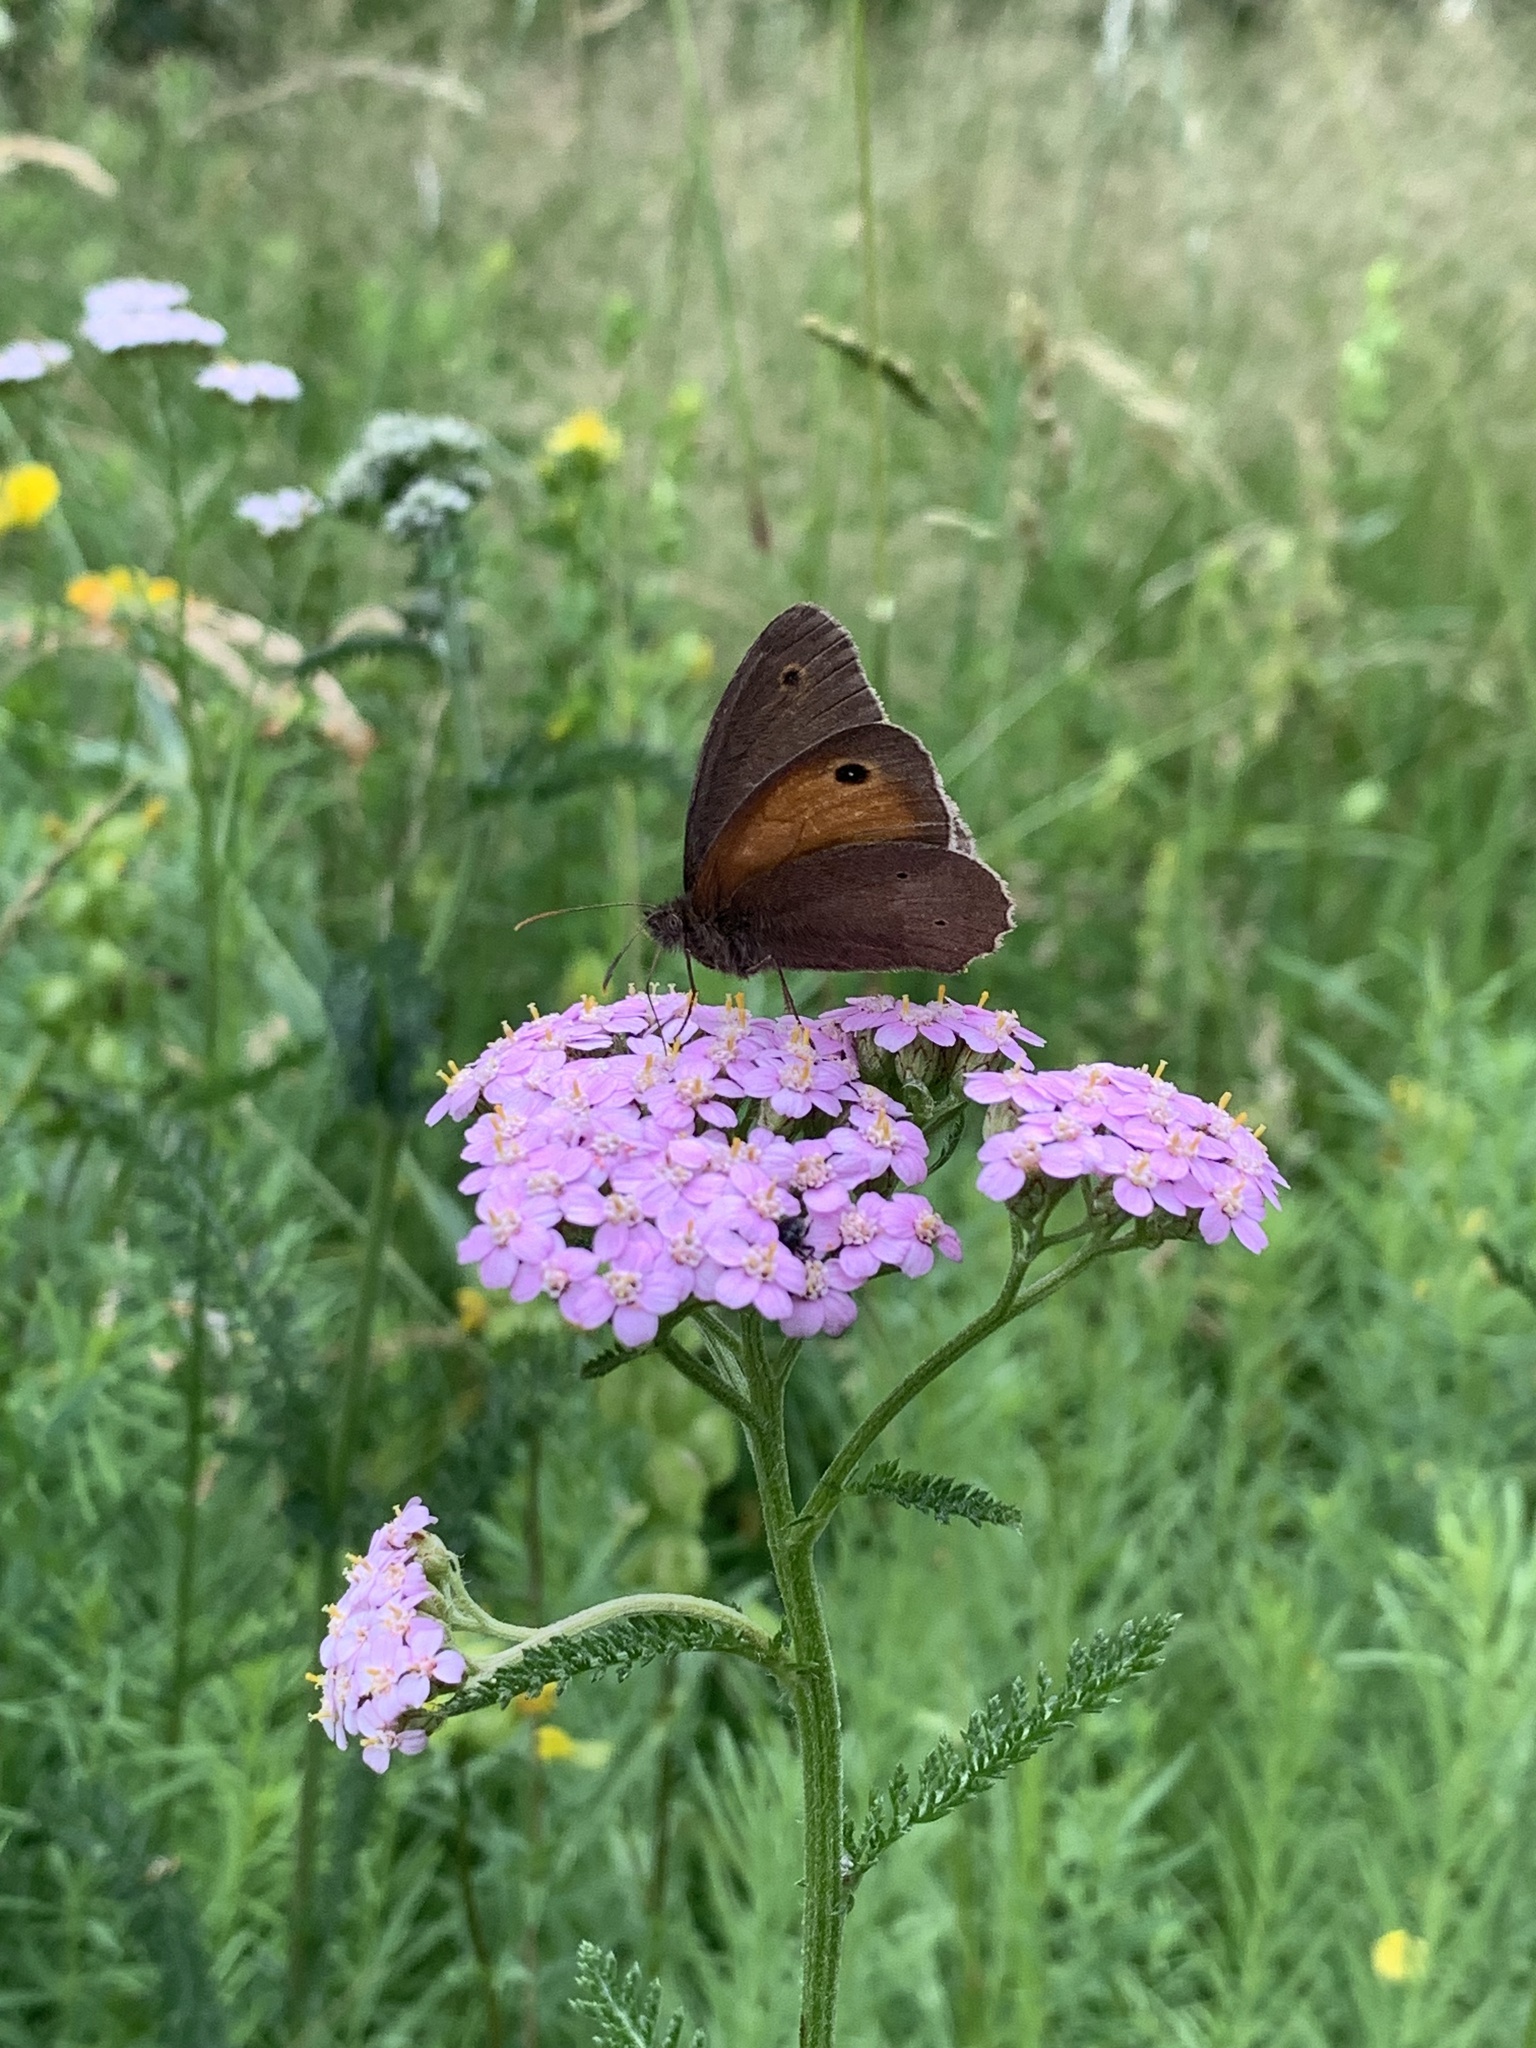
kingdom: Animalia
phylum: Arthropoda
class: Insecta
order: Lepidoptera
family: Nymphalidae
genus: Maniola
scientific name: Maniola jurtina
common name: Meadow brown
